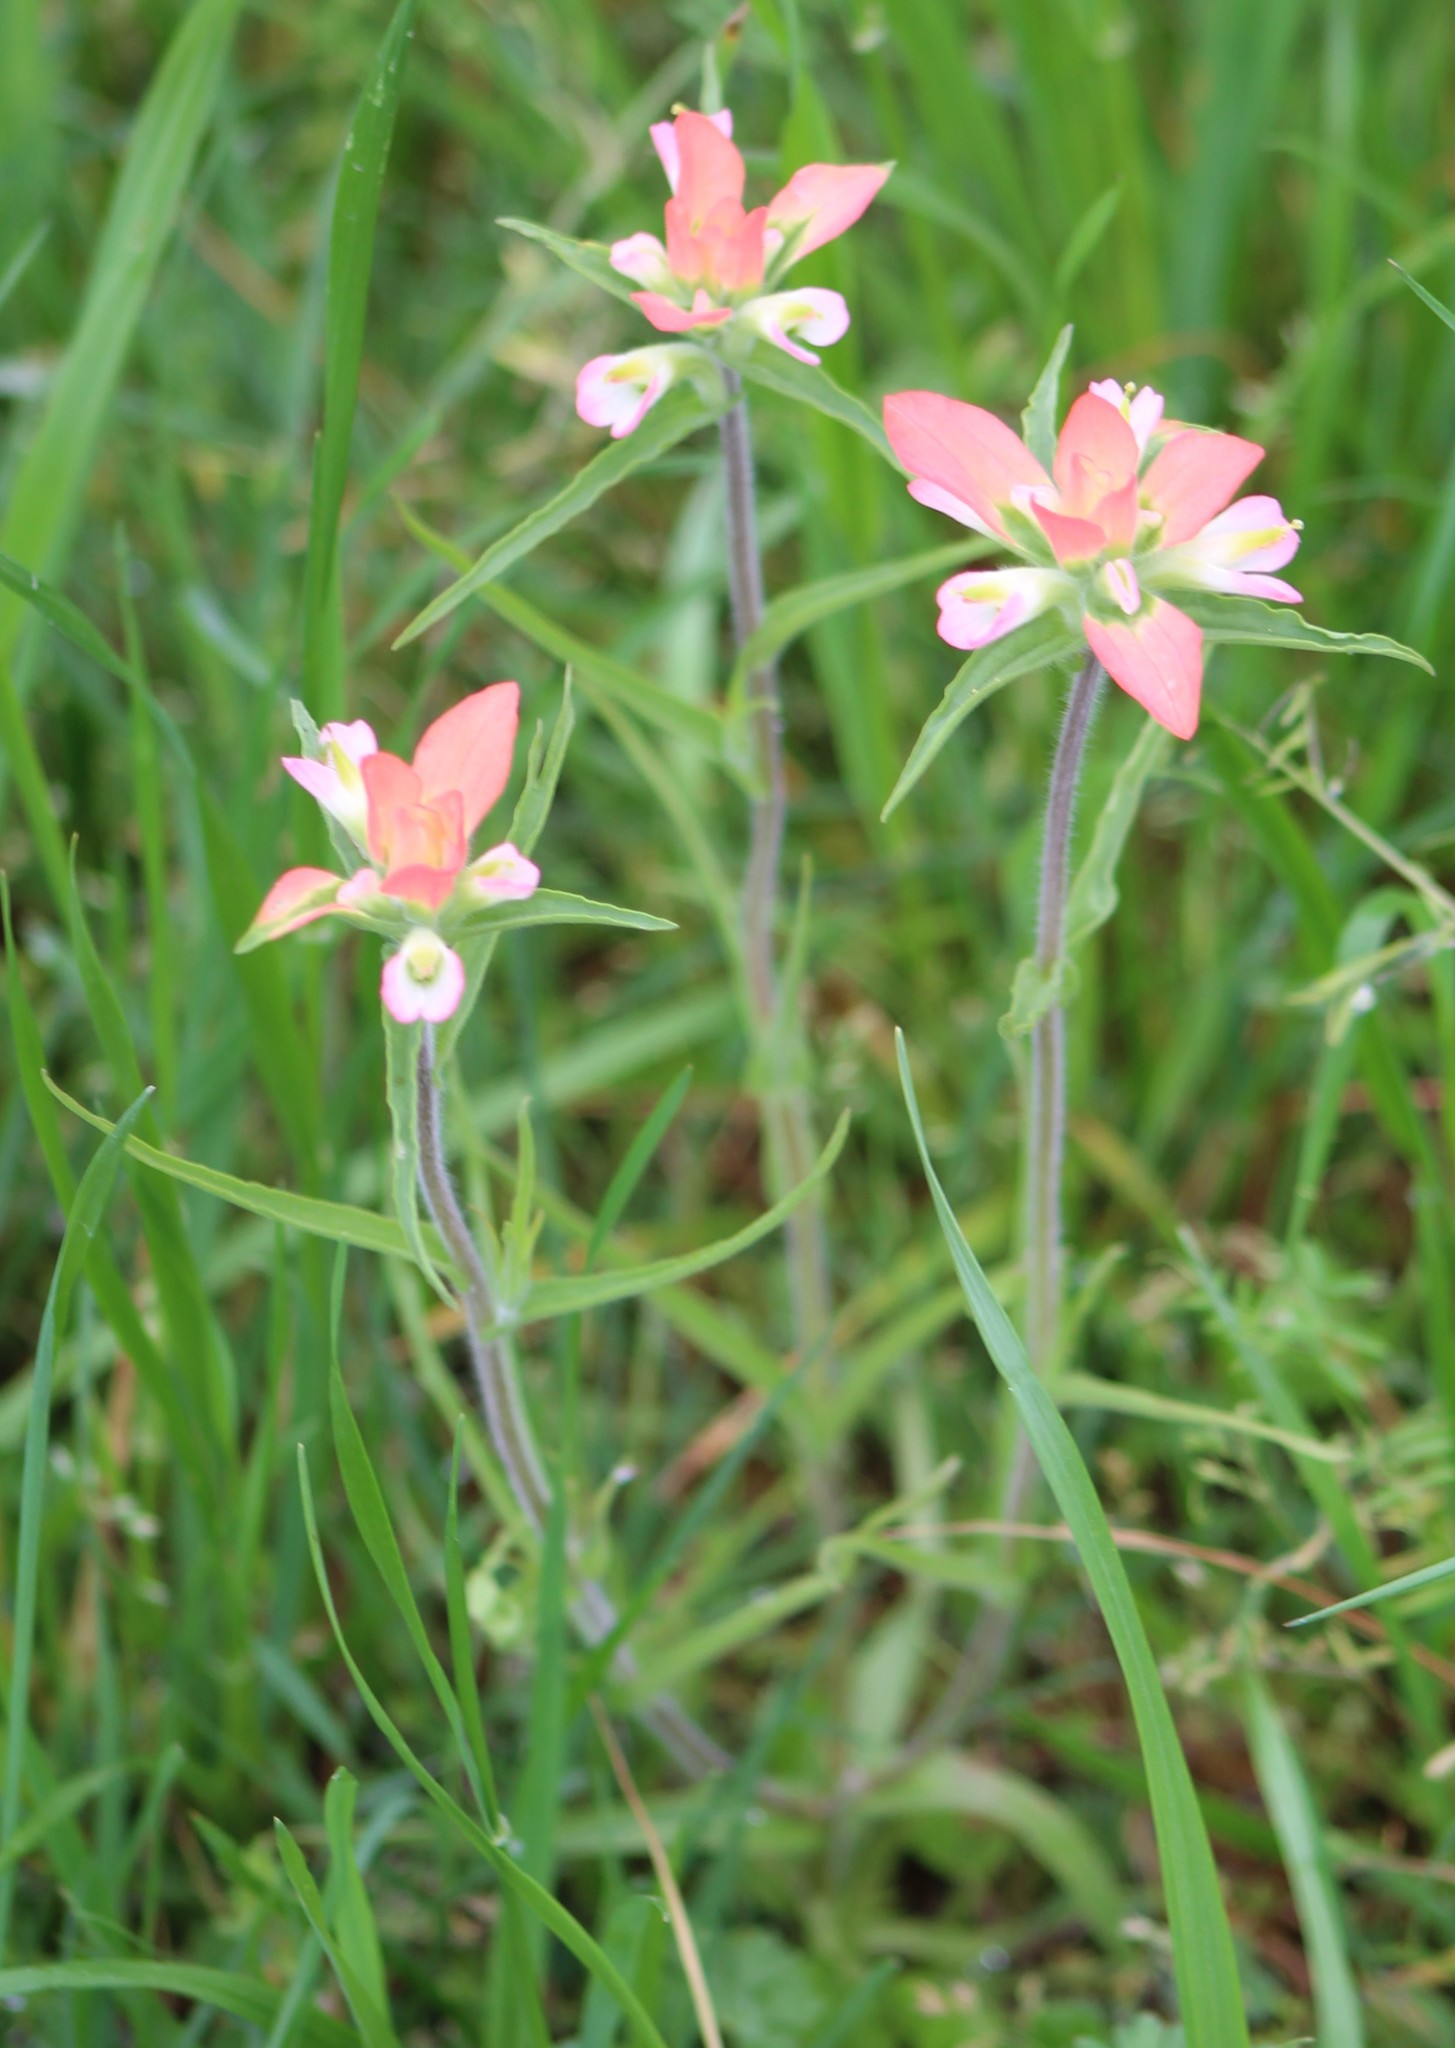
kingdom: Plantae
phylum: Tracheophyta
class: Magnoliopsida
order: Lamiales
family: Orobanchaceae
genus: Castilleja
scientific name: Castilleja indivisa
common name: Texas paintbrush
